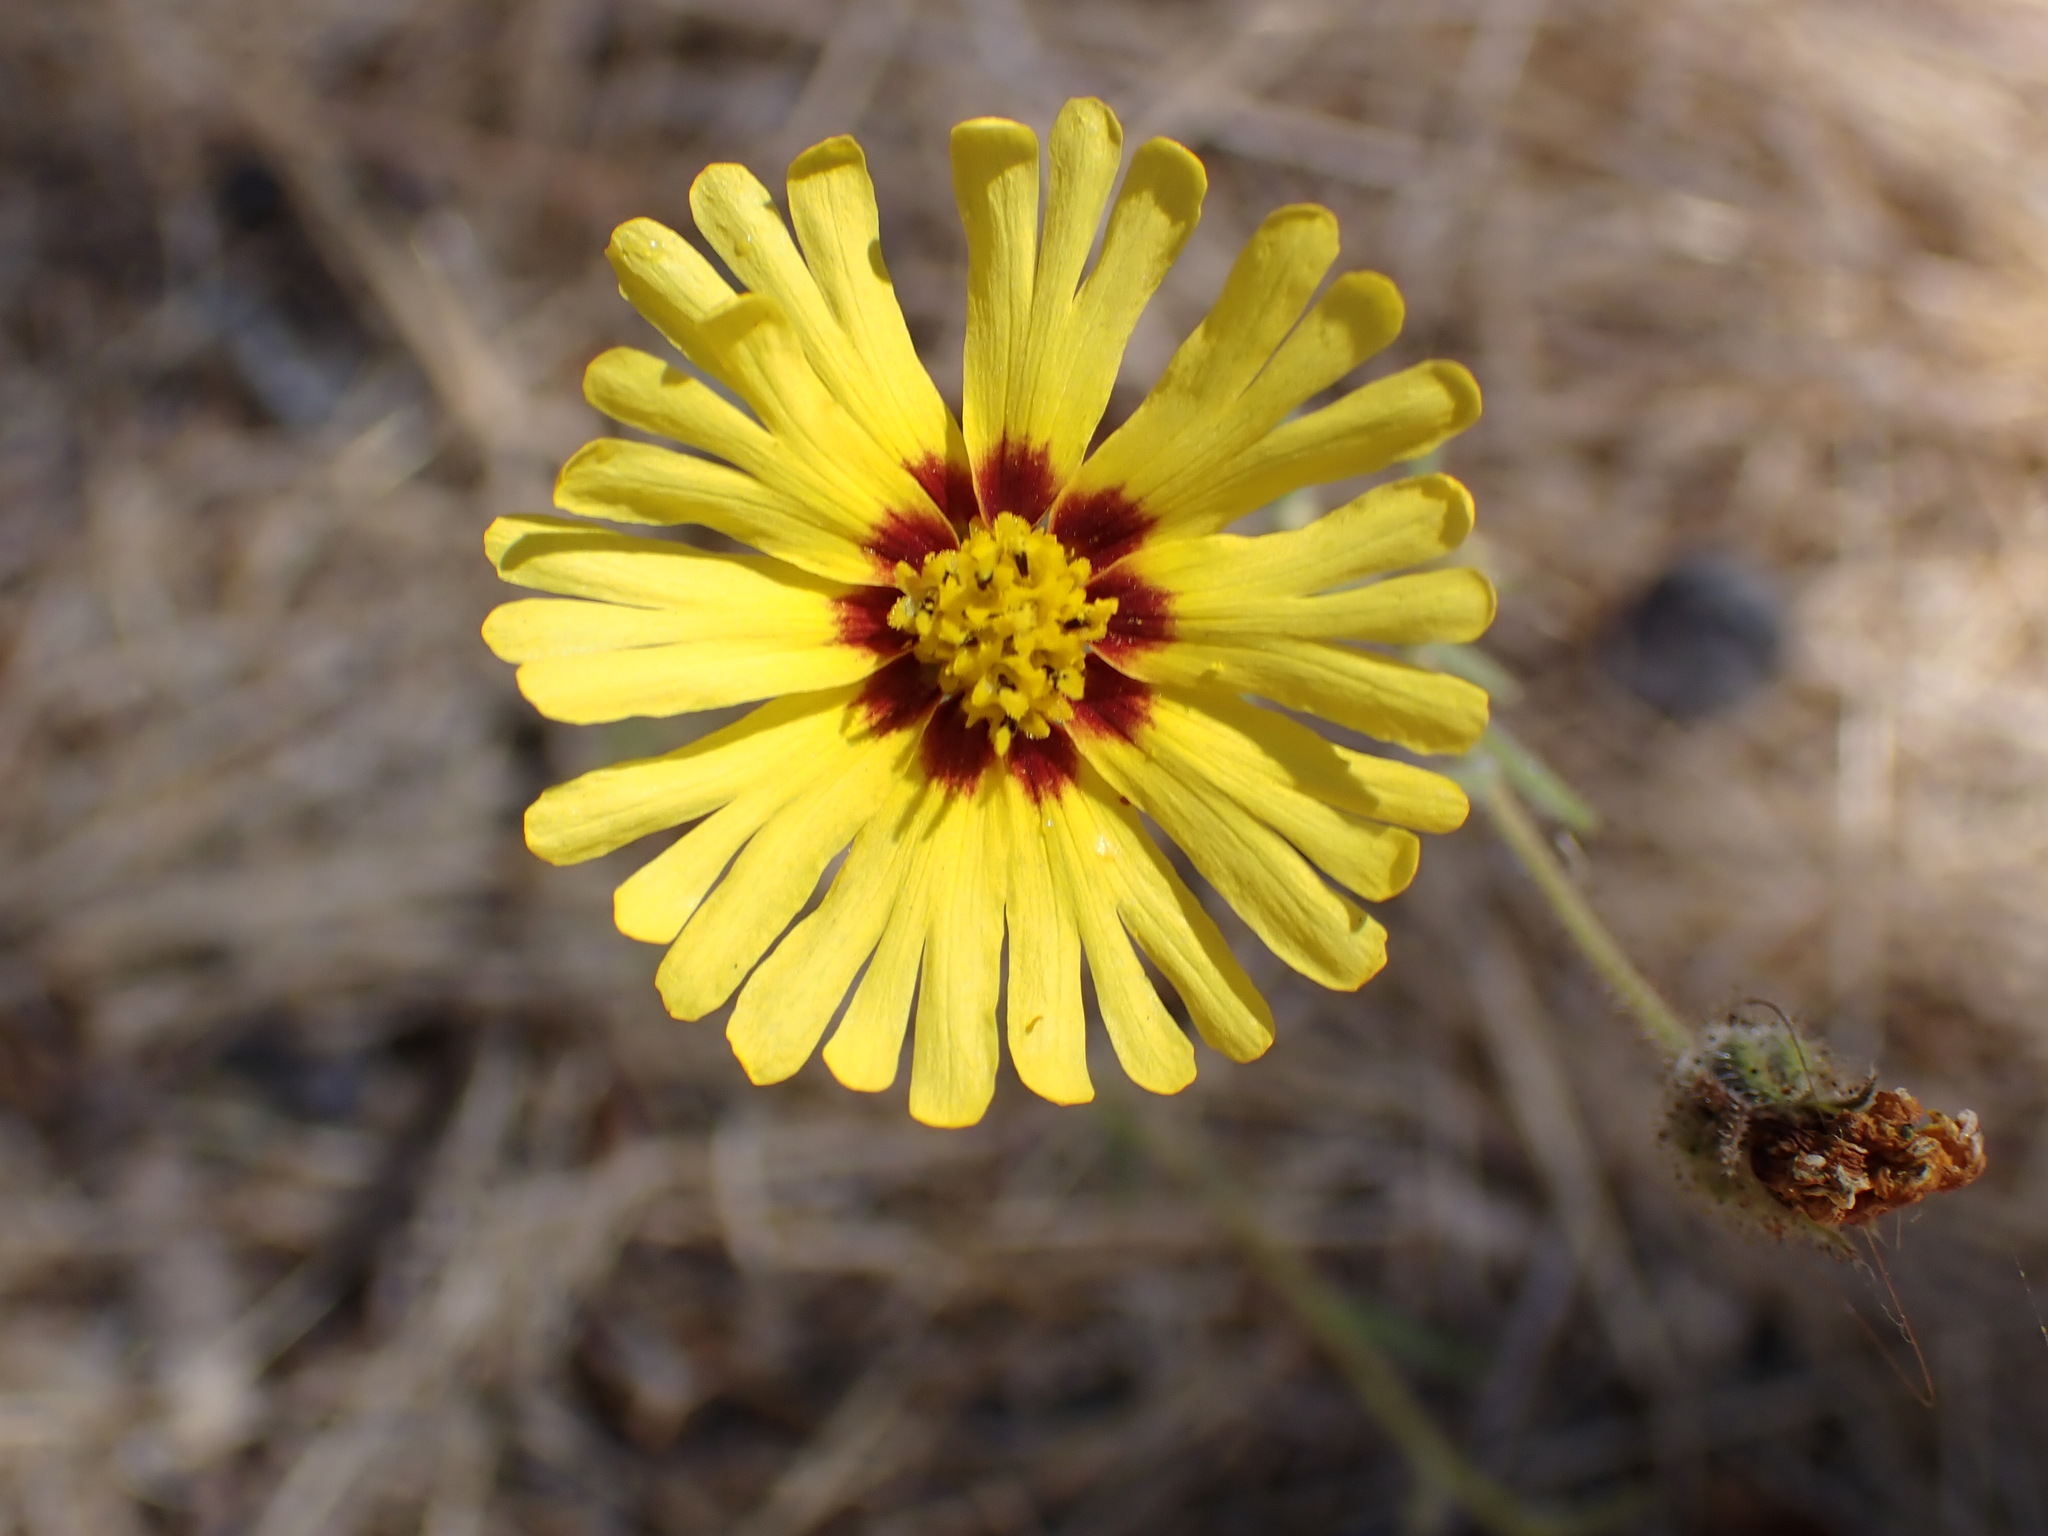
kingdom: Plantae
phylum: Tracheophyta
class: Magnoliopsida
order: Asterales
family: Asteraceae
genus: Madia
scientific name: Madia elegans
